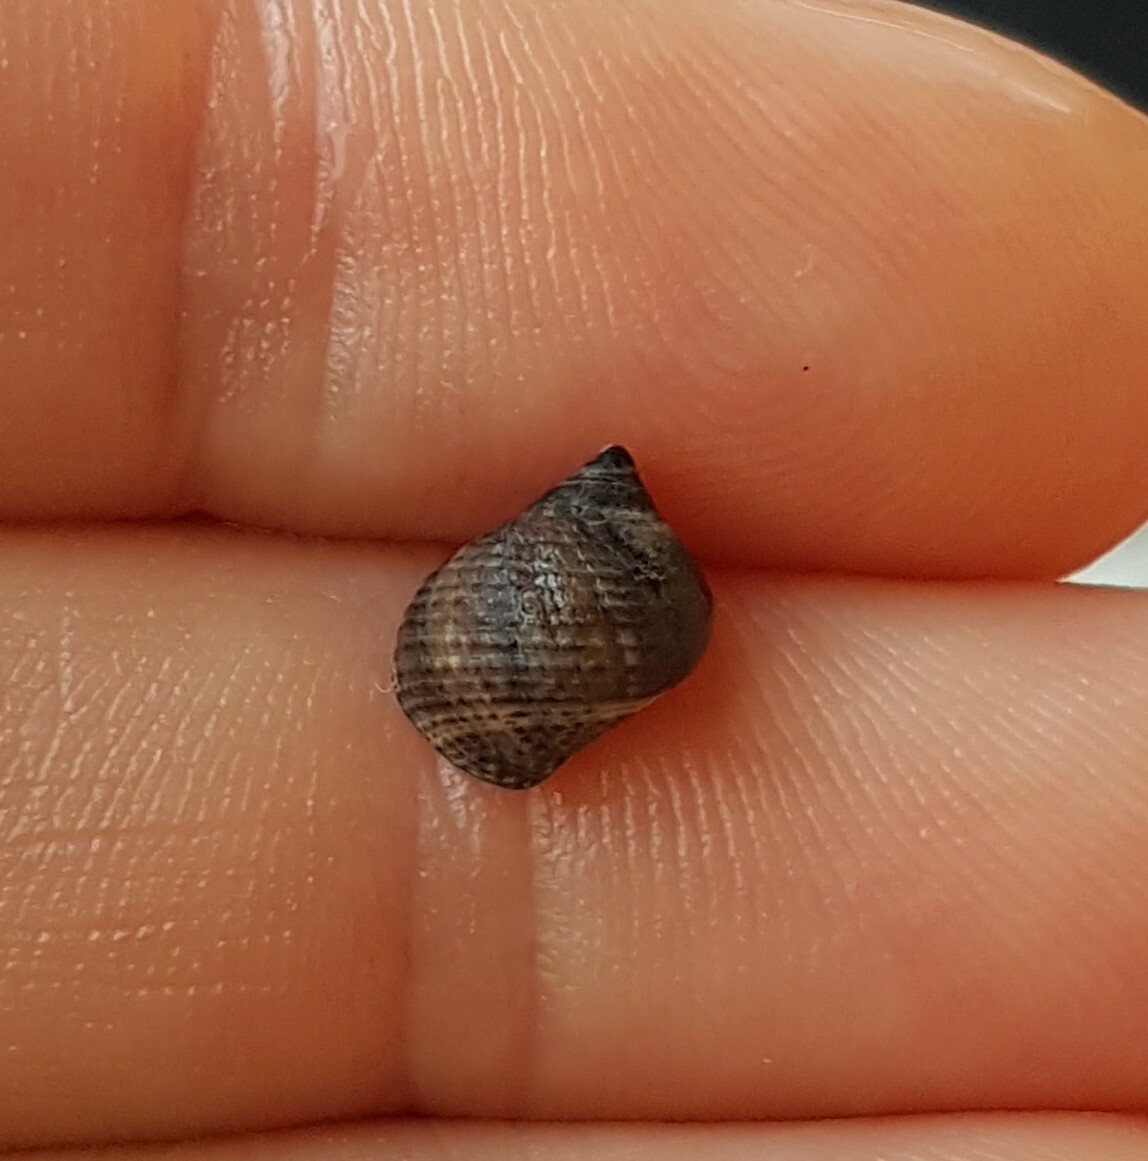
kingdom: Animalia
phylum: Mollusca
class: Gastropoda
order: Littorinimorpha
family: Littorinidae
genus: Tectarius
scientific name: Tectarius striatus
